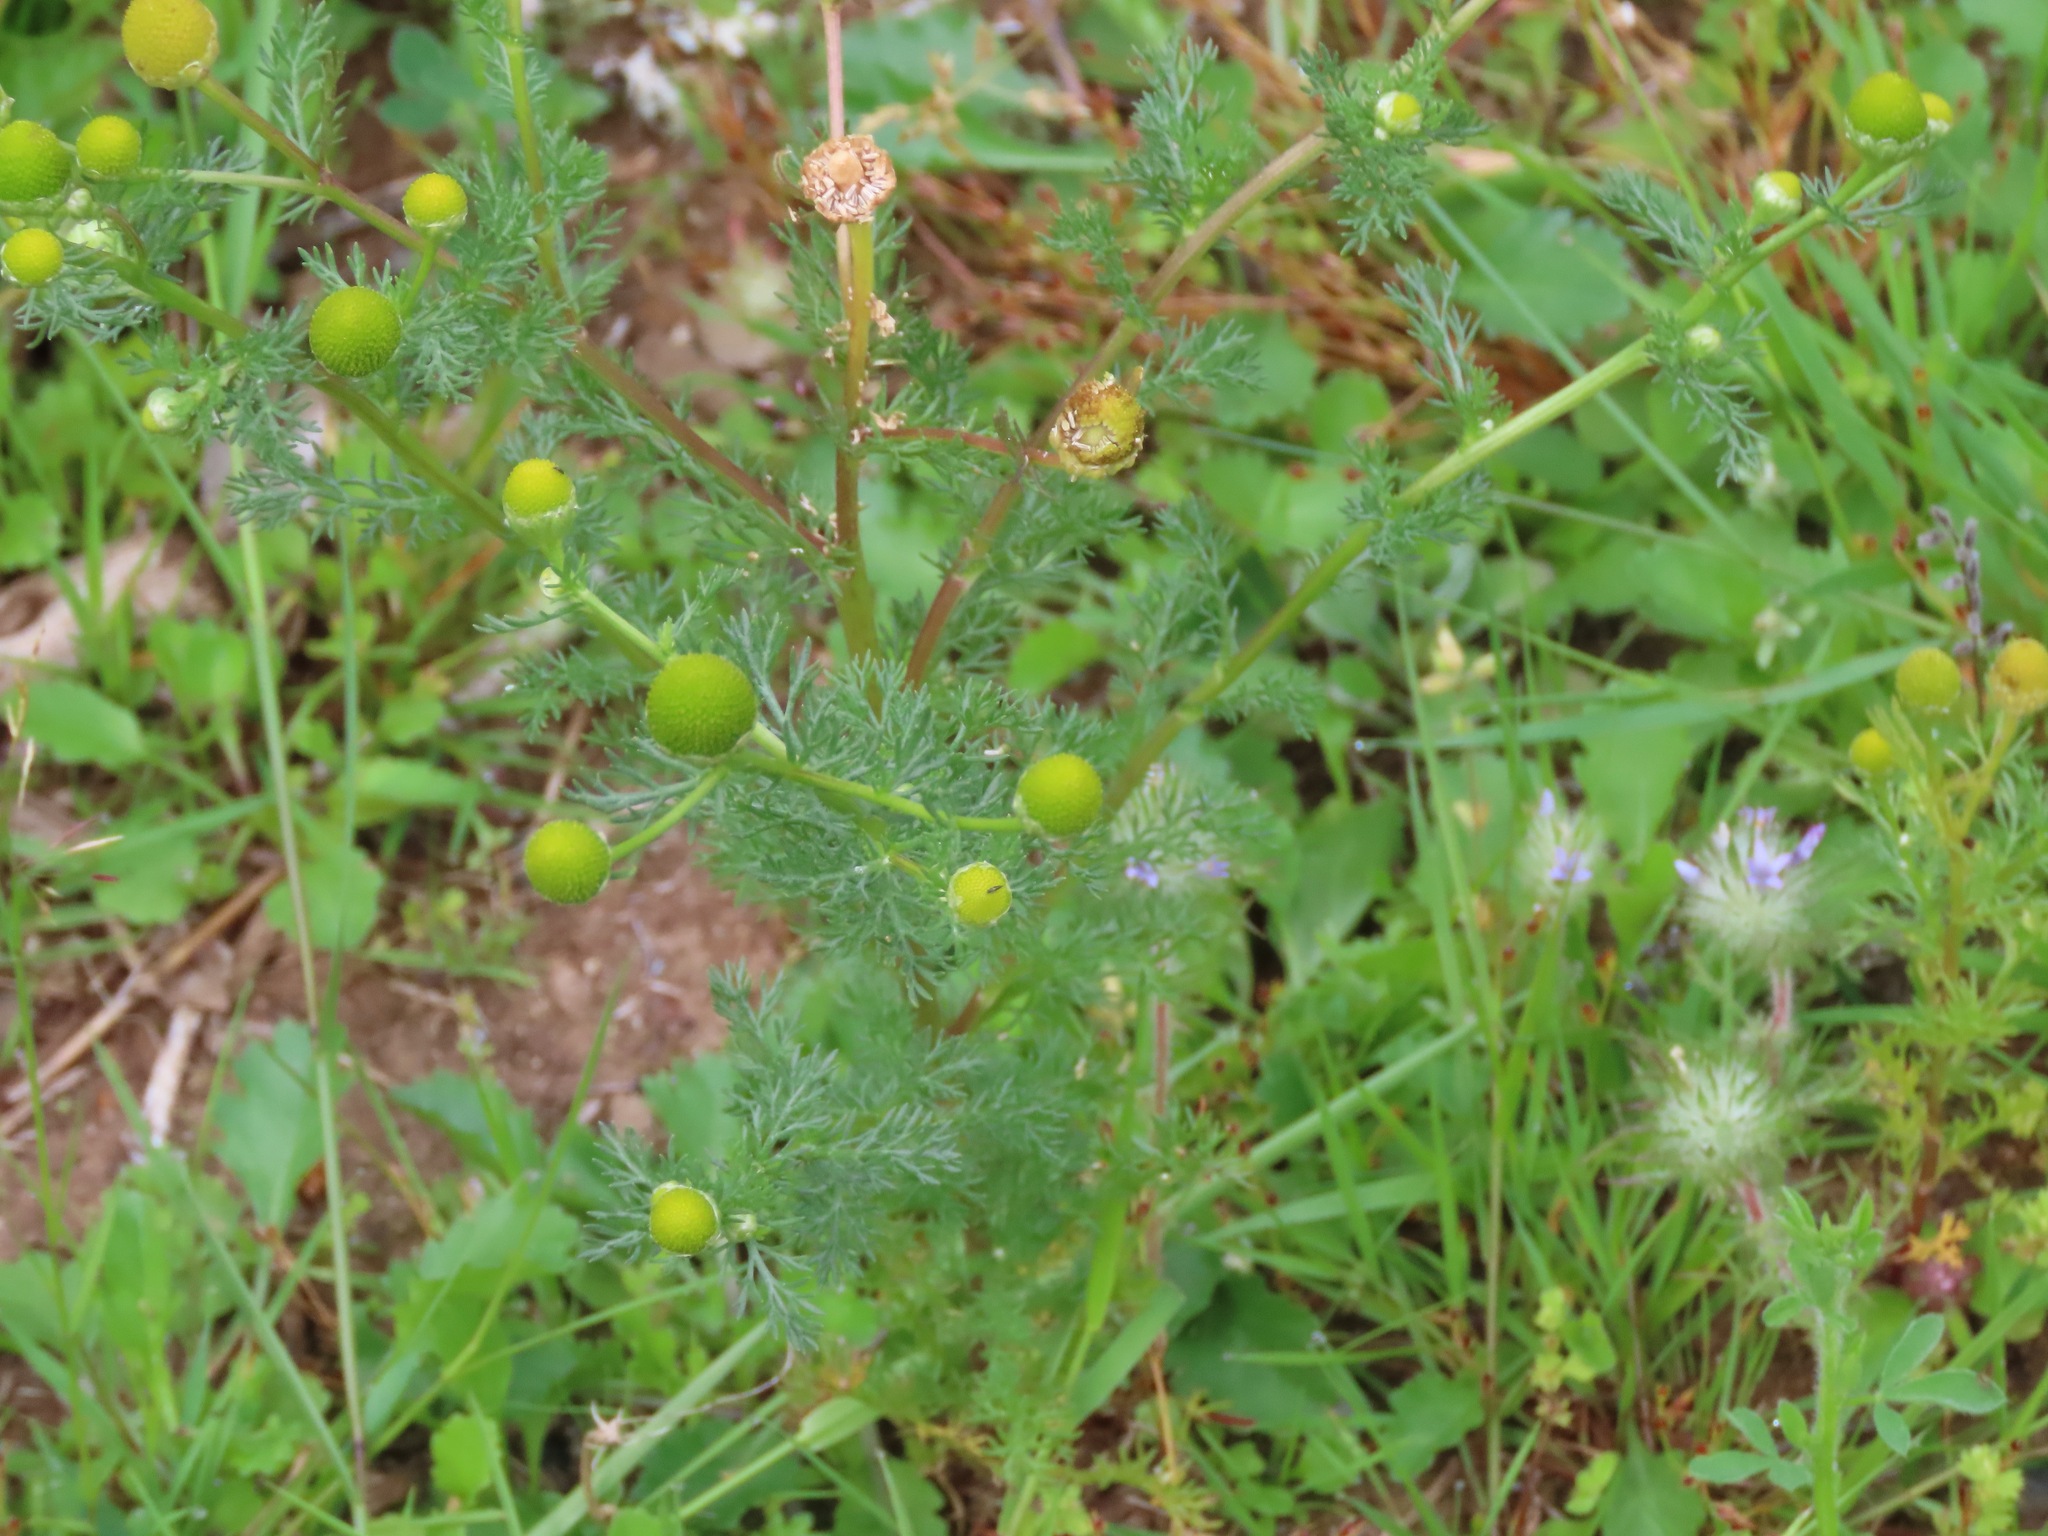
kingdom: Plantae
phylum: Tracheophyta
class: Magnoliopsida
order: Asterales
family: Asteraceae
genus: Matricaria
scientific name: Matricaria discoidea
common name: Disc mayweed
